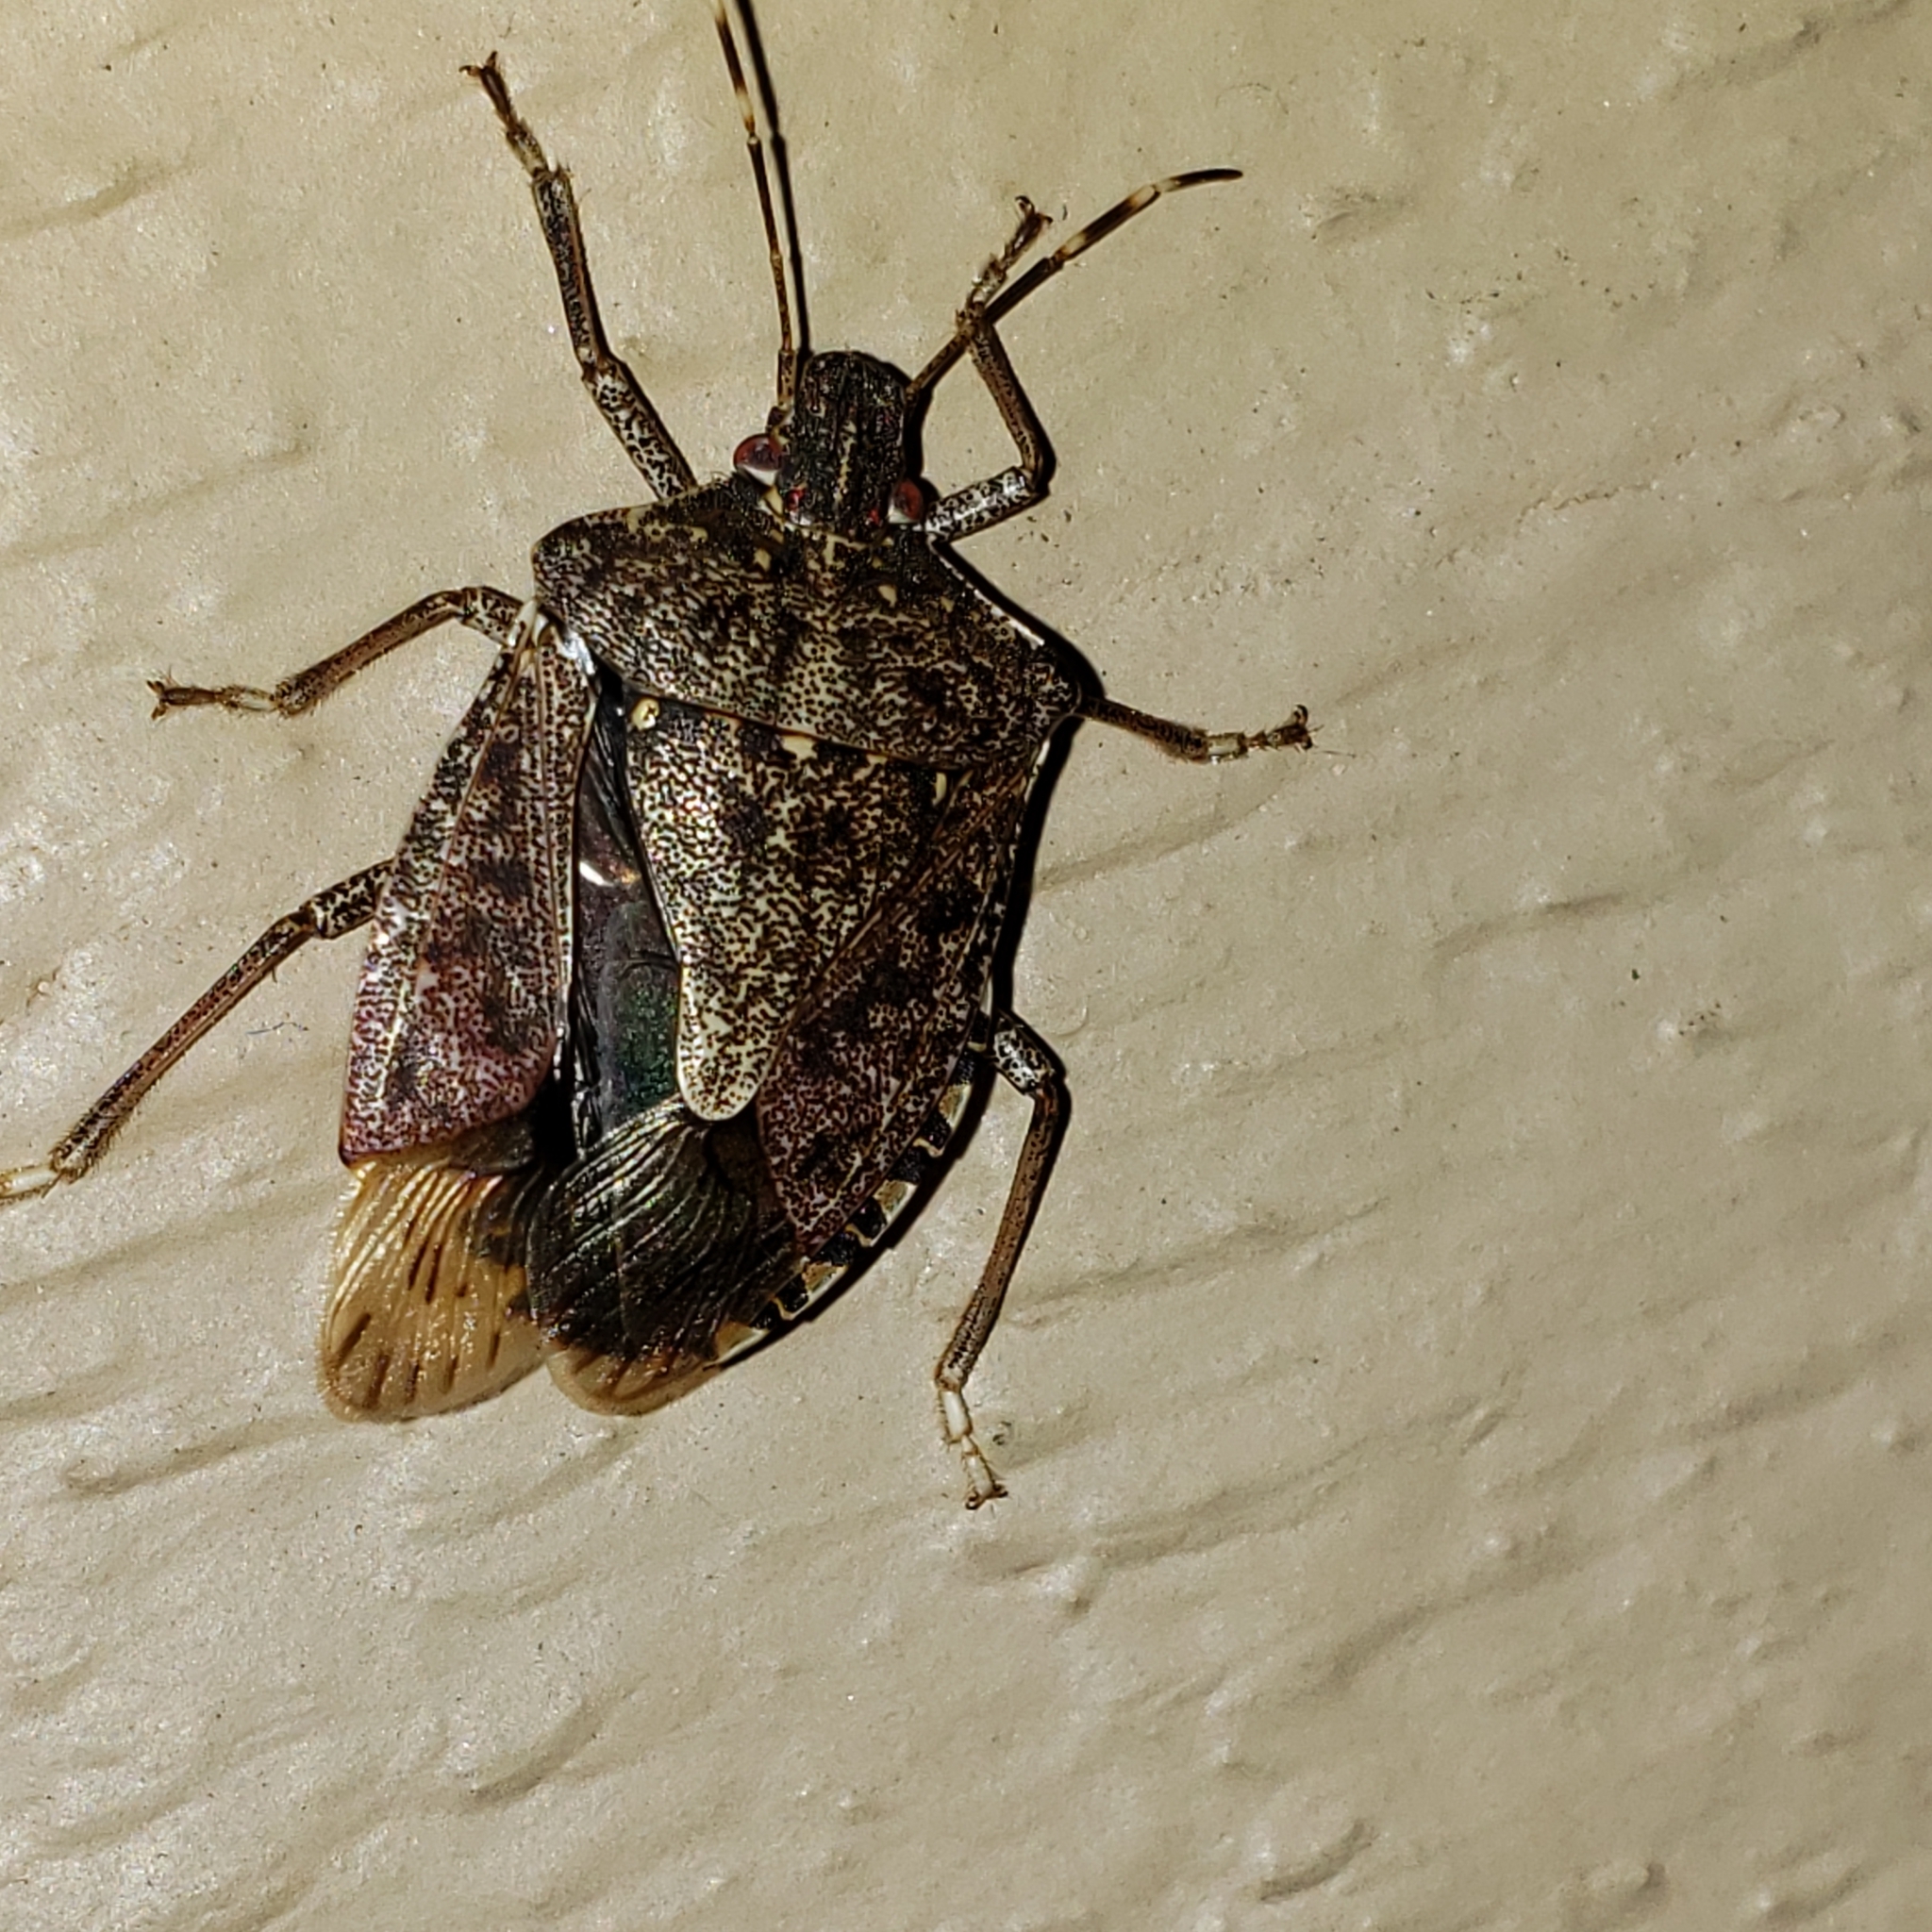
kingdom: Animalia
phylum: Arthropoda
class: Insecta
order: Hemiptera
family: Pentatomidae
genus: Halyomorpha
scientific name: Halyomorpha halys
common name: Brown marmorated stink bug
